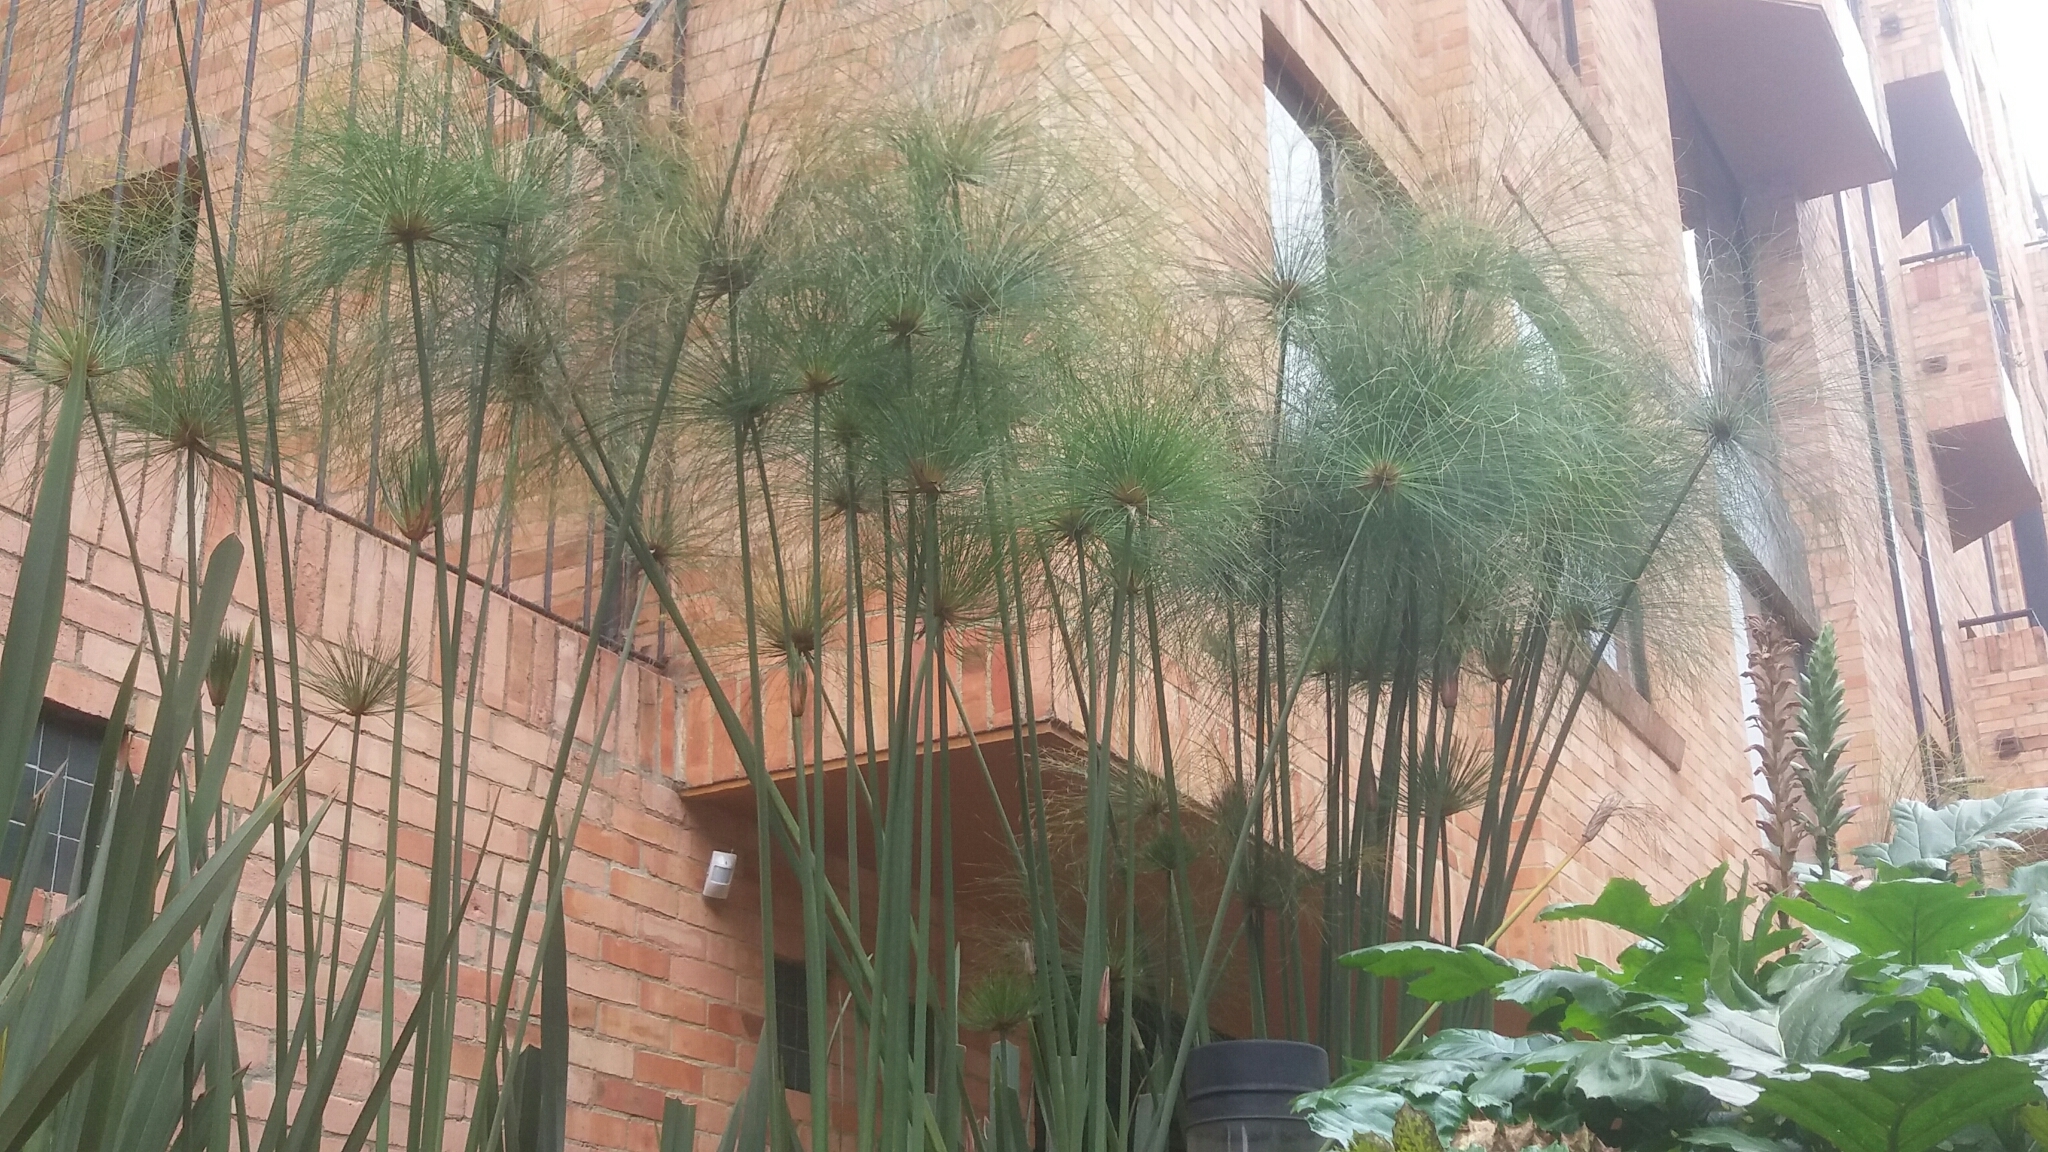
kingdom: Plantae
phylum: Tracheophyta
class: Liliopsida
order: Poales
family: Cyperaceae
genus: Cyperus
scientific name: Cyperus papyrus
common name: Papyrus
